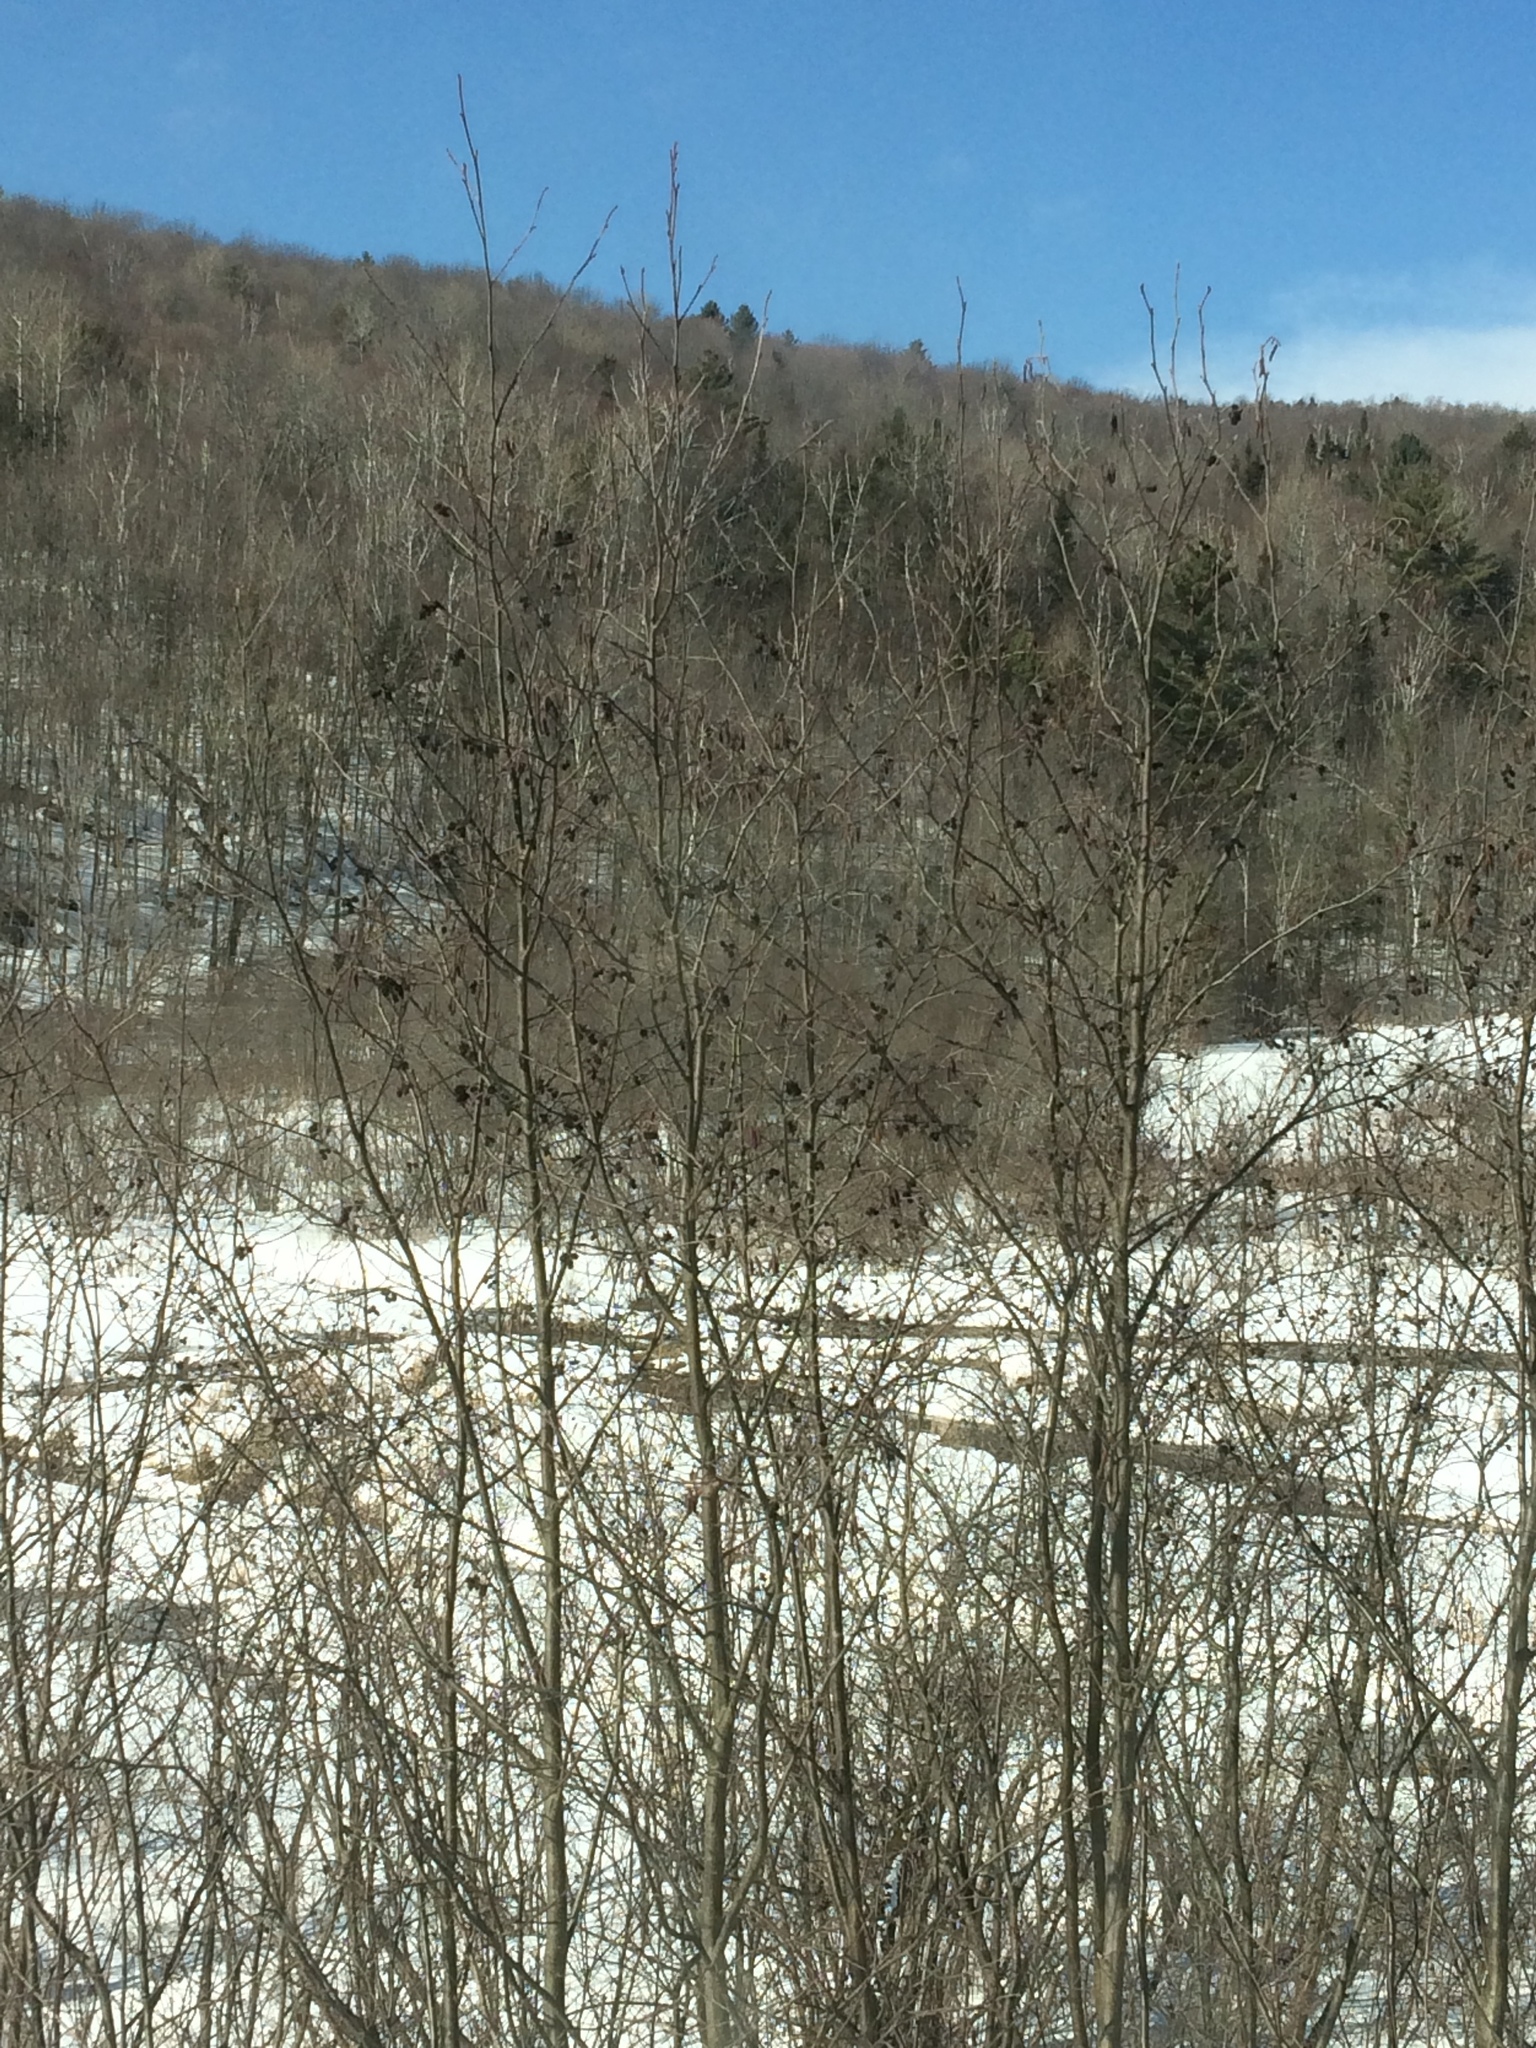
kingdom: Plantae
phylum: Tracheophyta
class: Magnoliopsida
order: Fagales
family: Betulaceae
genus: Alnus
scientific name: Alnus incana
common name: Grey alder
